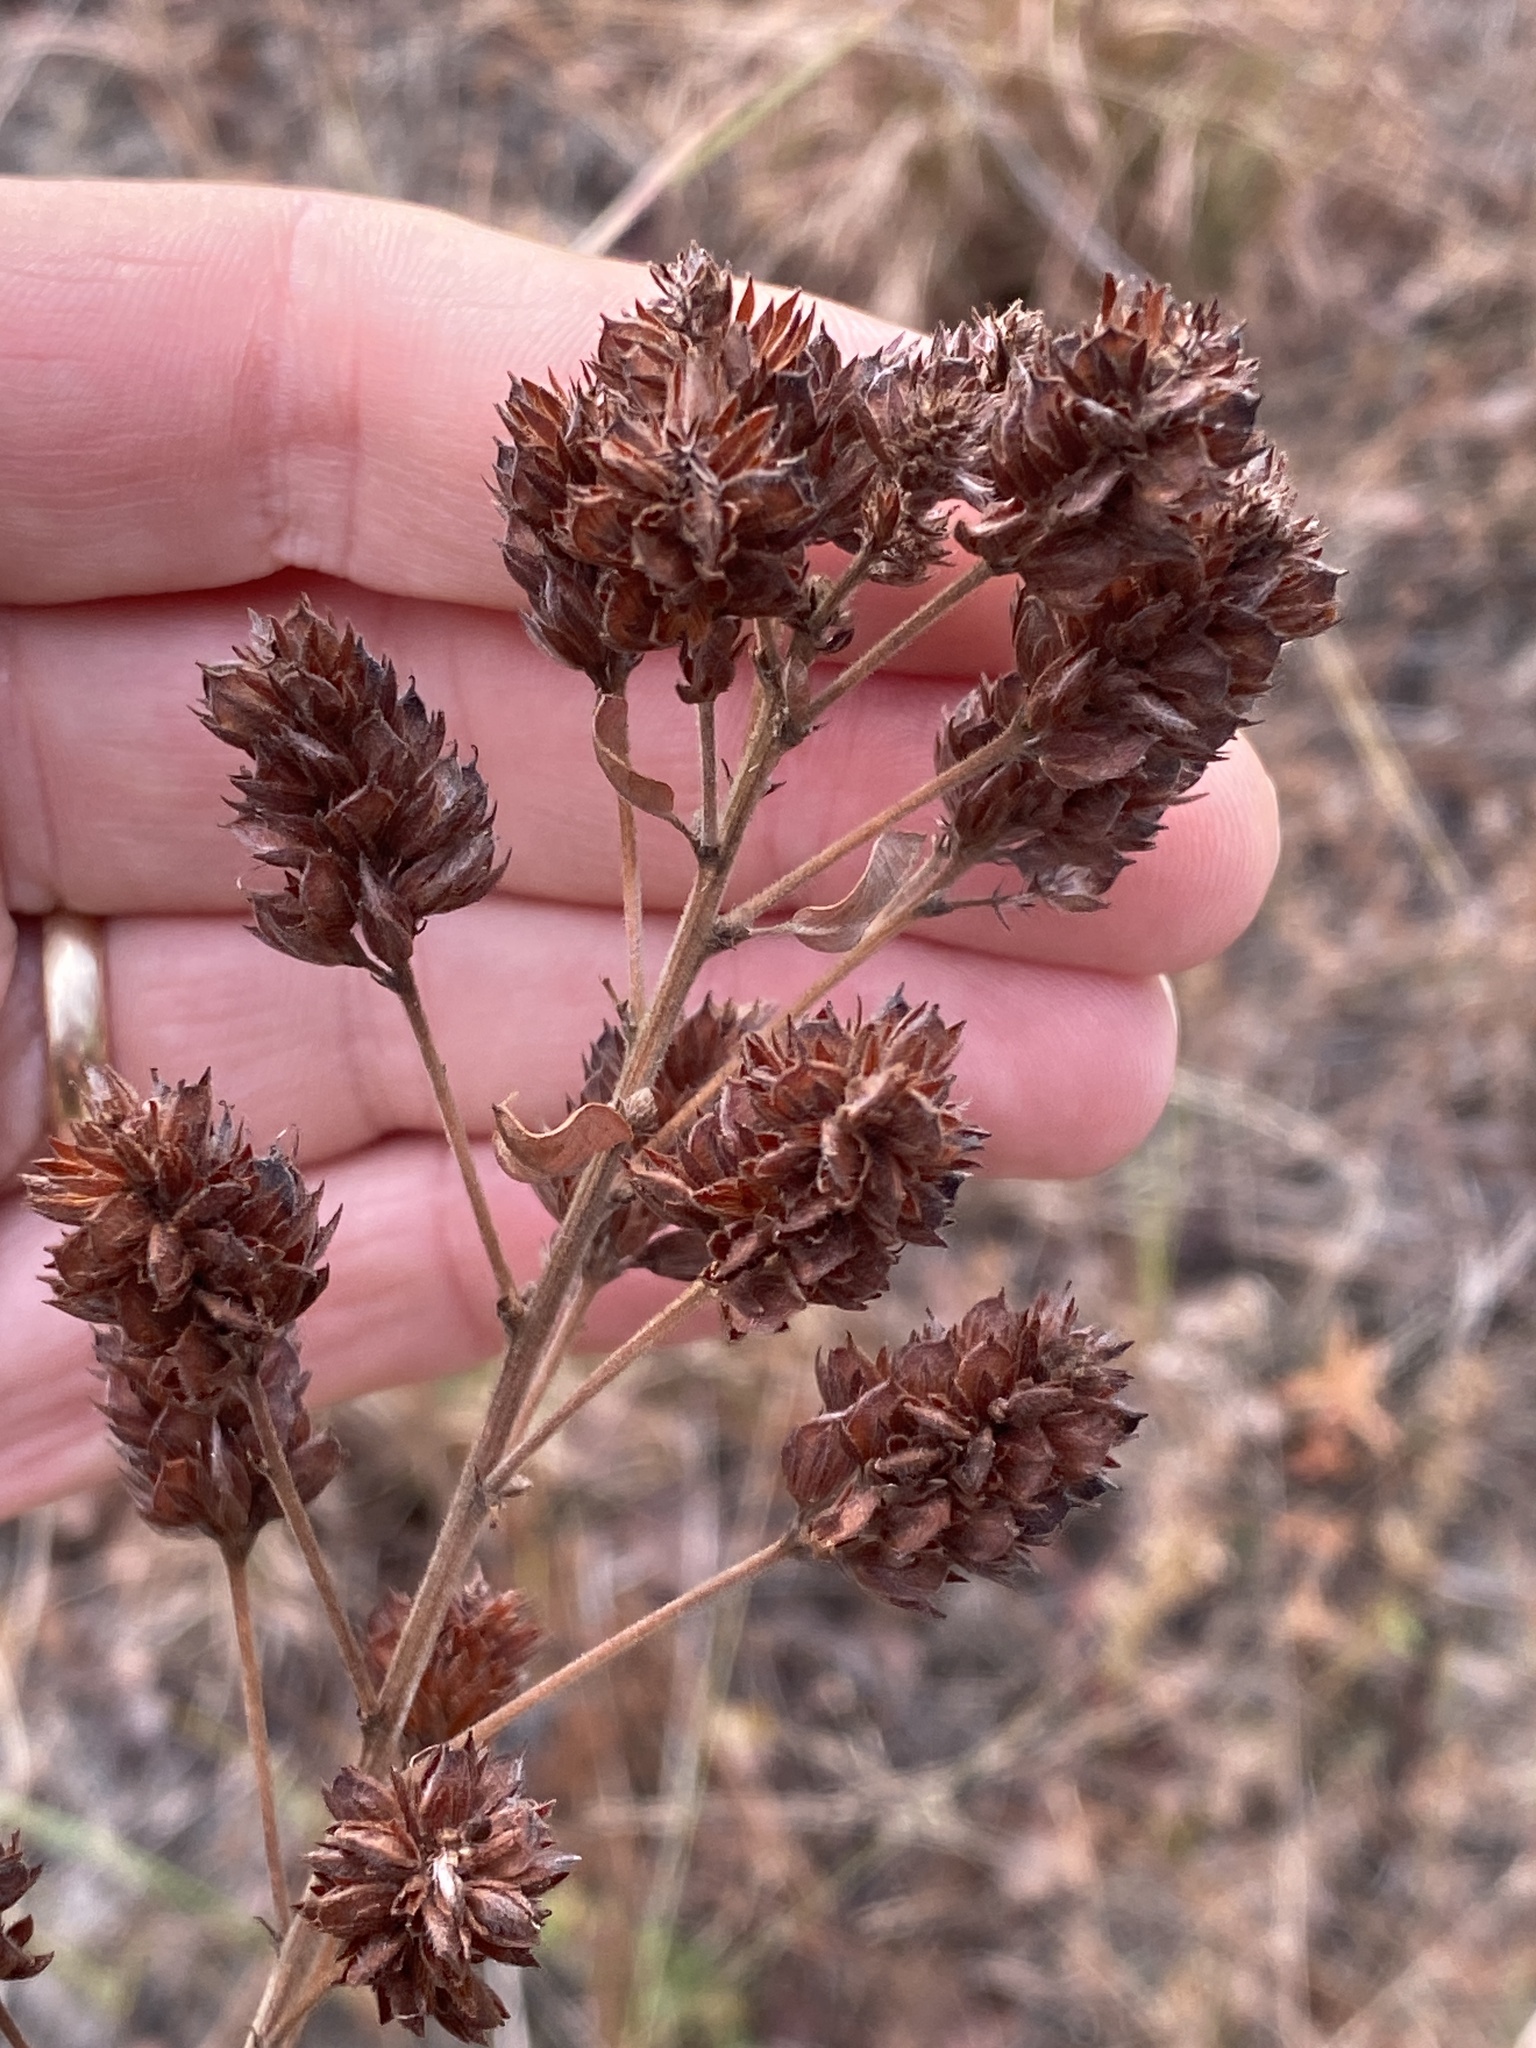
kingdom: Plantae
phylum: Tracheophyta
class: Magnoliopsida
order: Fabales
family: Fabaceae
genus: Lespedeza
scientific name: Lespedeza hirta
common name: Hairy lespedeza
